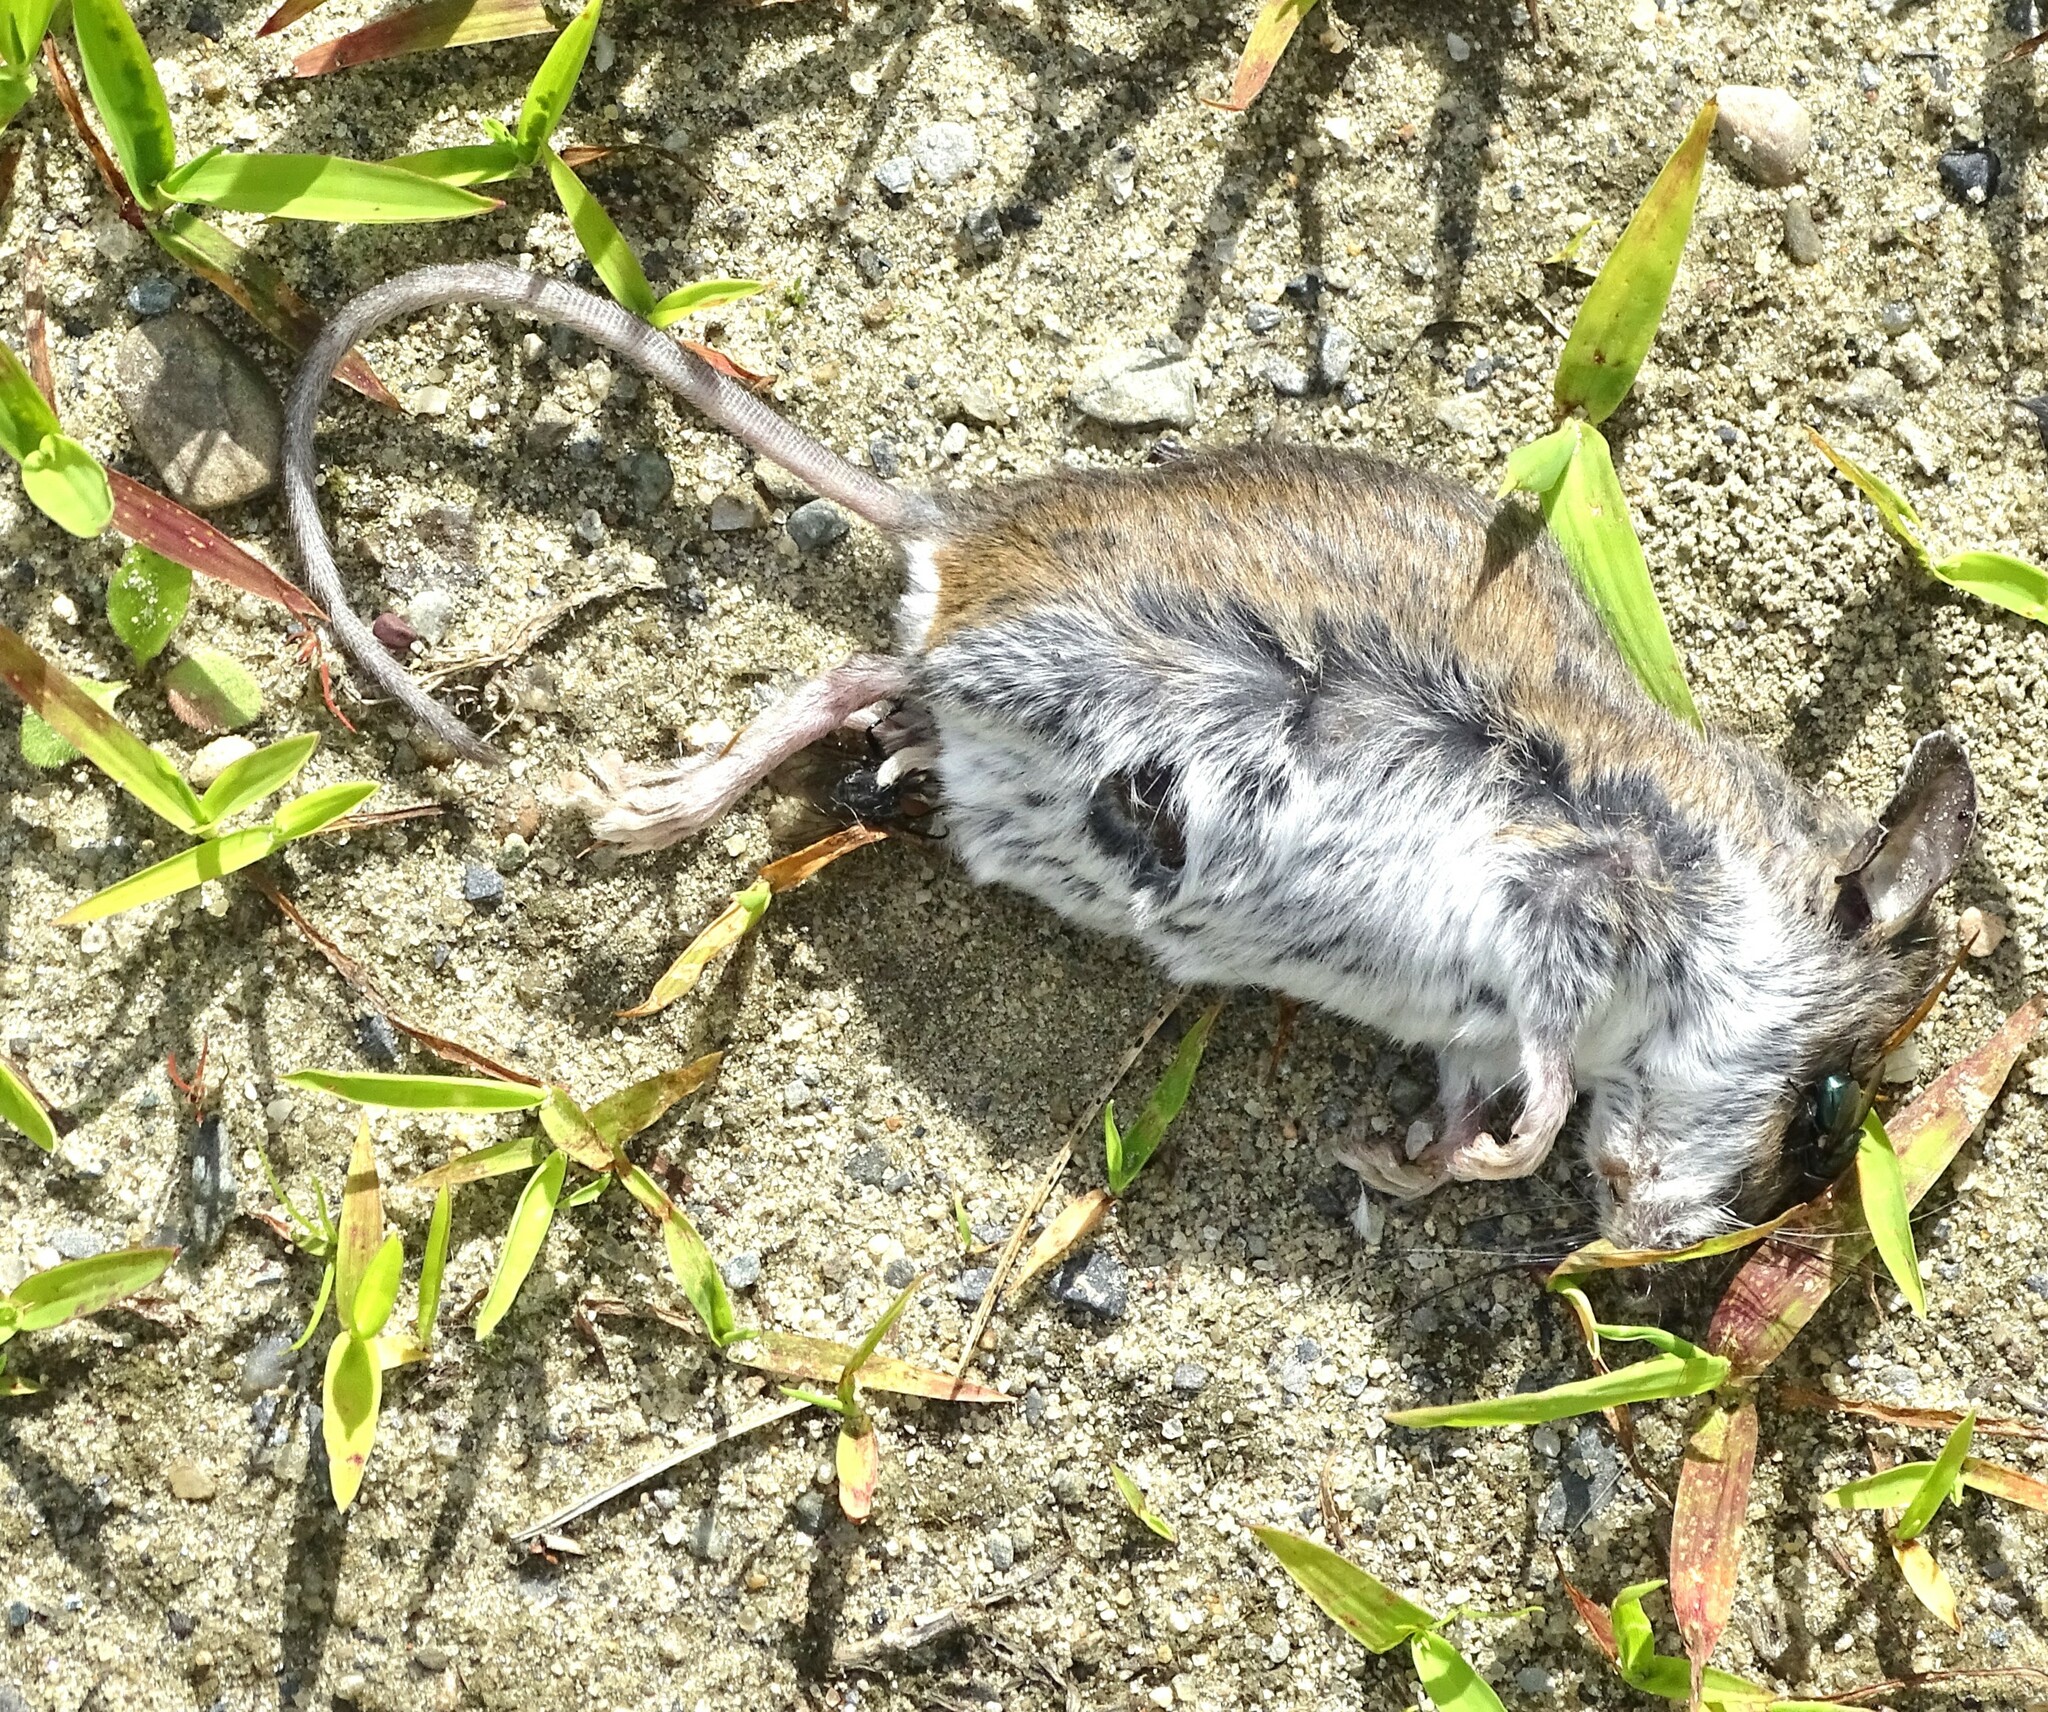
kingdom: Animalia
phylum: Chordata
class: Mammalia
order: Rodentia
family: Cricetidae
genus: Peromyscus
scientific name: Peromyscus
